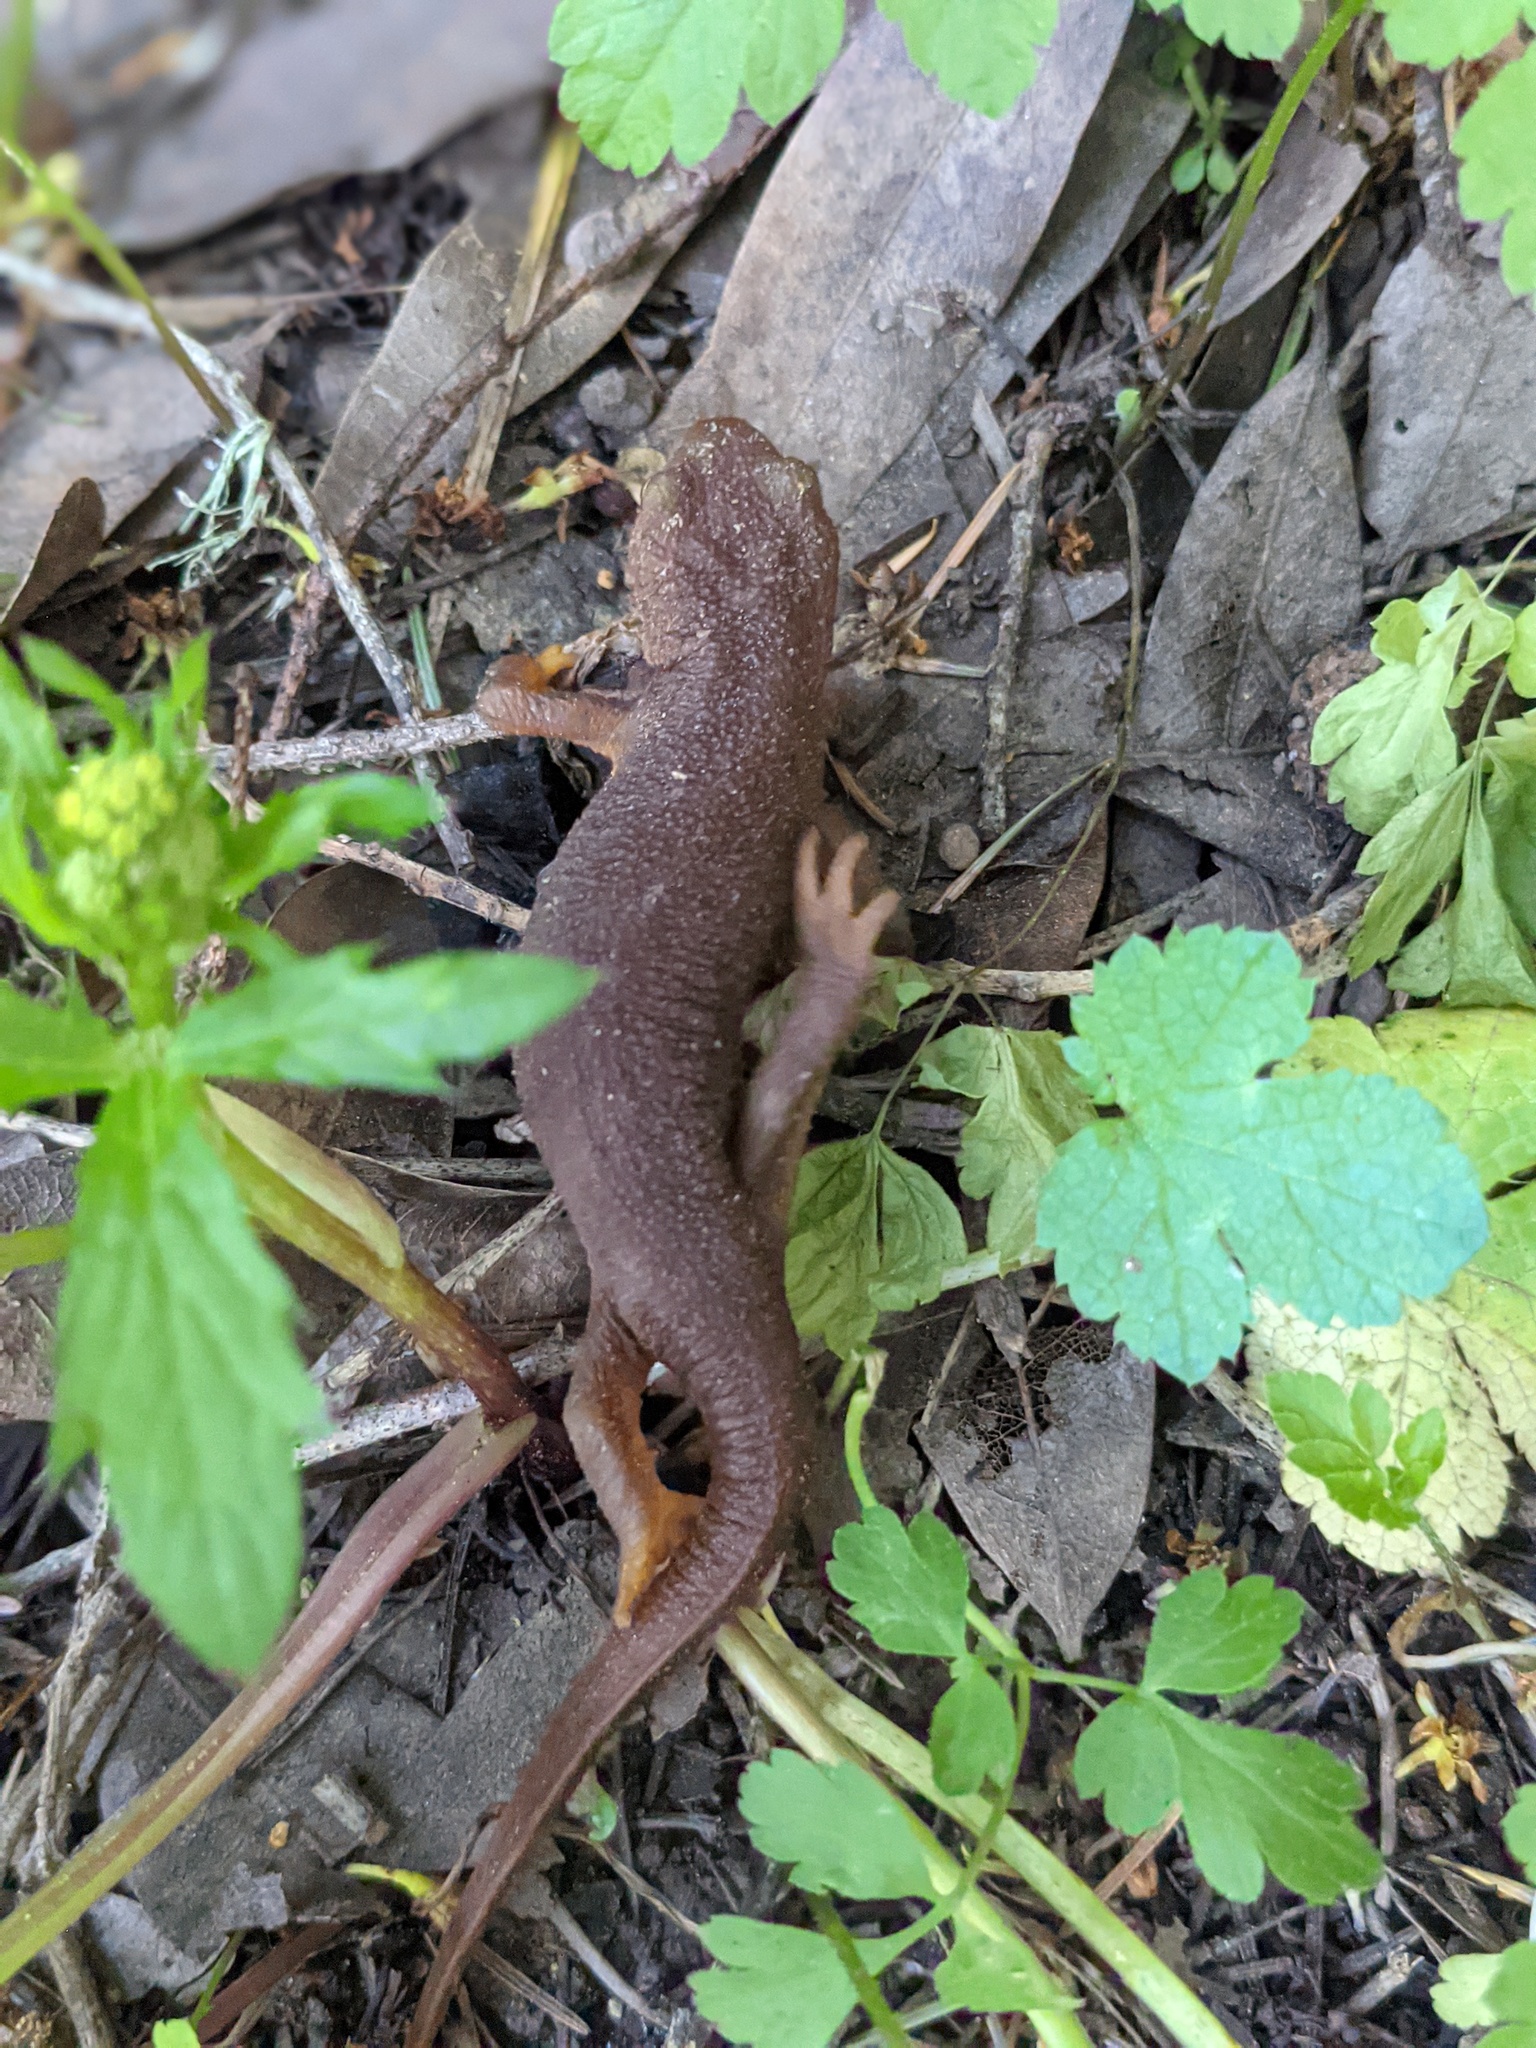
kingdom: Animalia
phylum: Chordata
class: Amphibia
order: Caudata
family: Salamandridae
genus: Taricha
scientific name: Taricha torosa
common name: California newt
